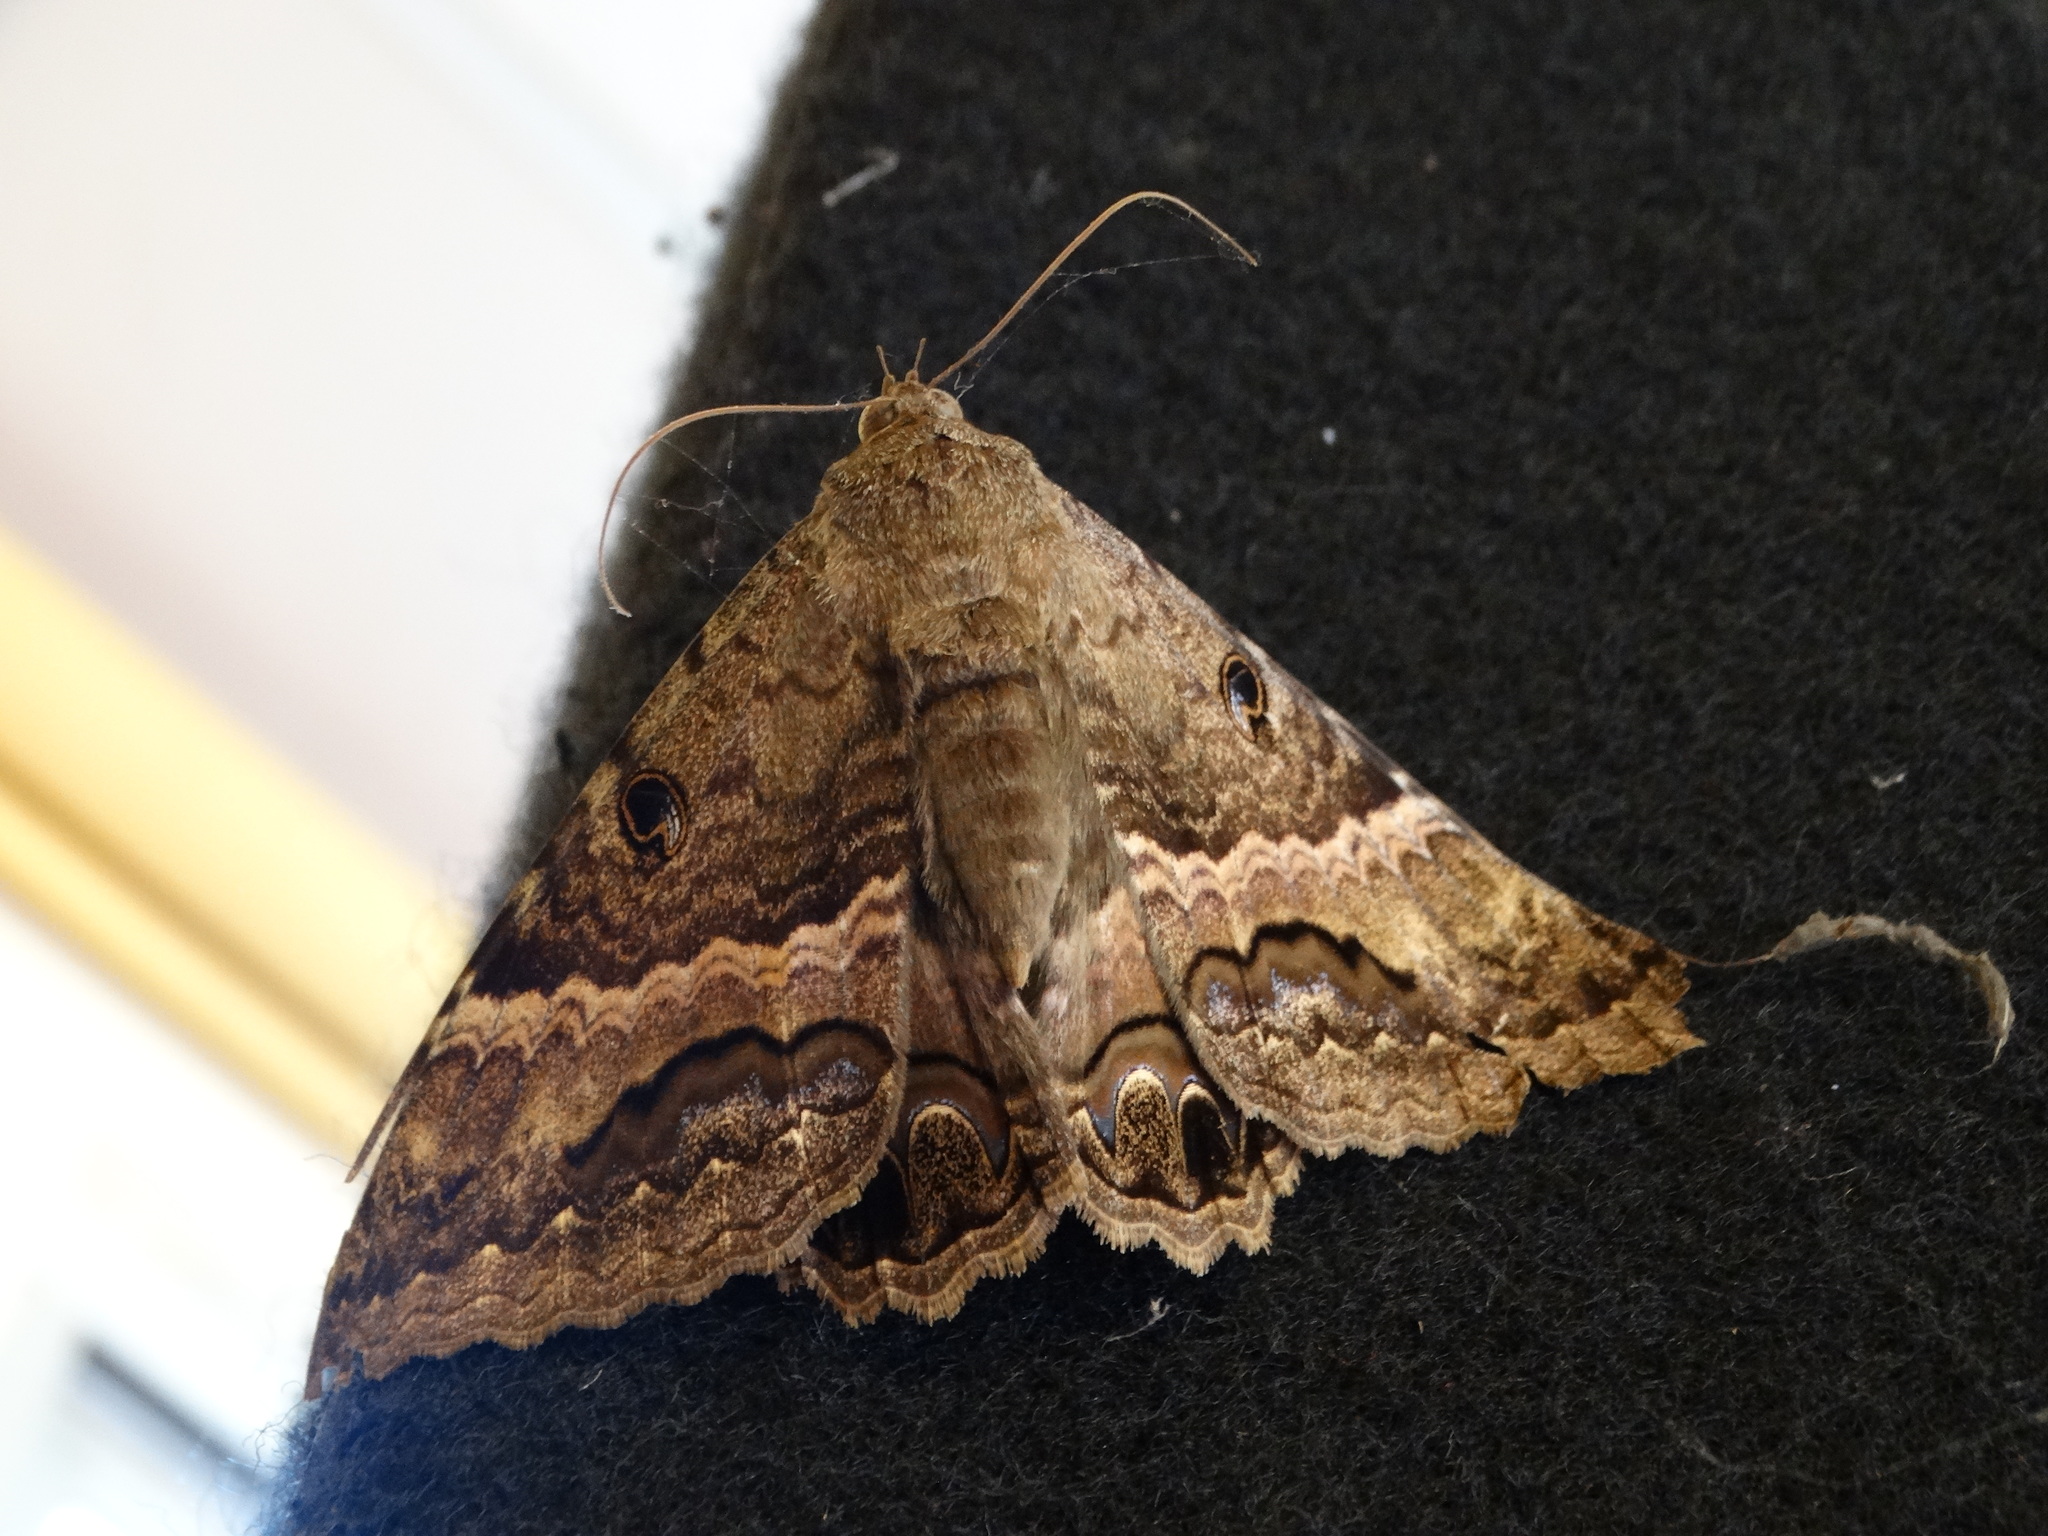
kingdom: Animalia
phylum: Arthropoda
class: Insecta
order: Lepidoptera
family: Erebidae
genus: Ascalapha
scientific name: Ascalapha odorata
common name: Black witch
